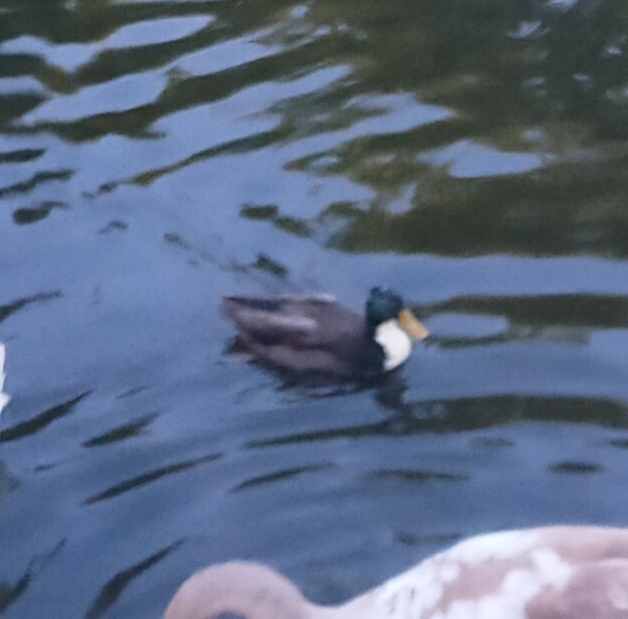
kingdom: Animalia
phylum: Chordata
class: Aves
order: Anseriformes
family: Anatidae
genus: Anas
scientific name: Anas platyrhynchos
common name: Mallard
